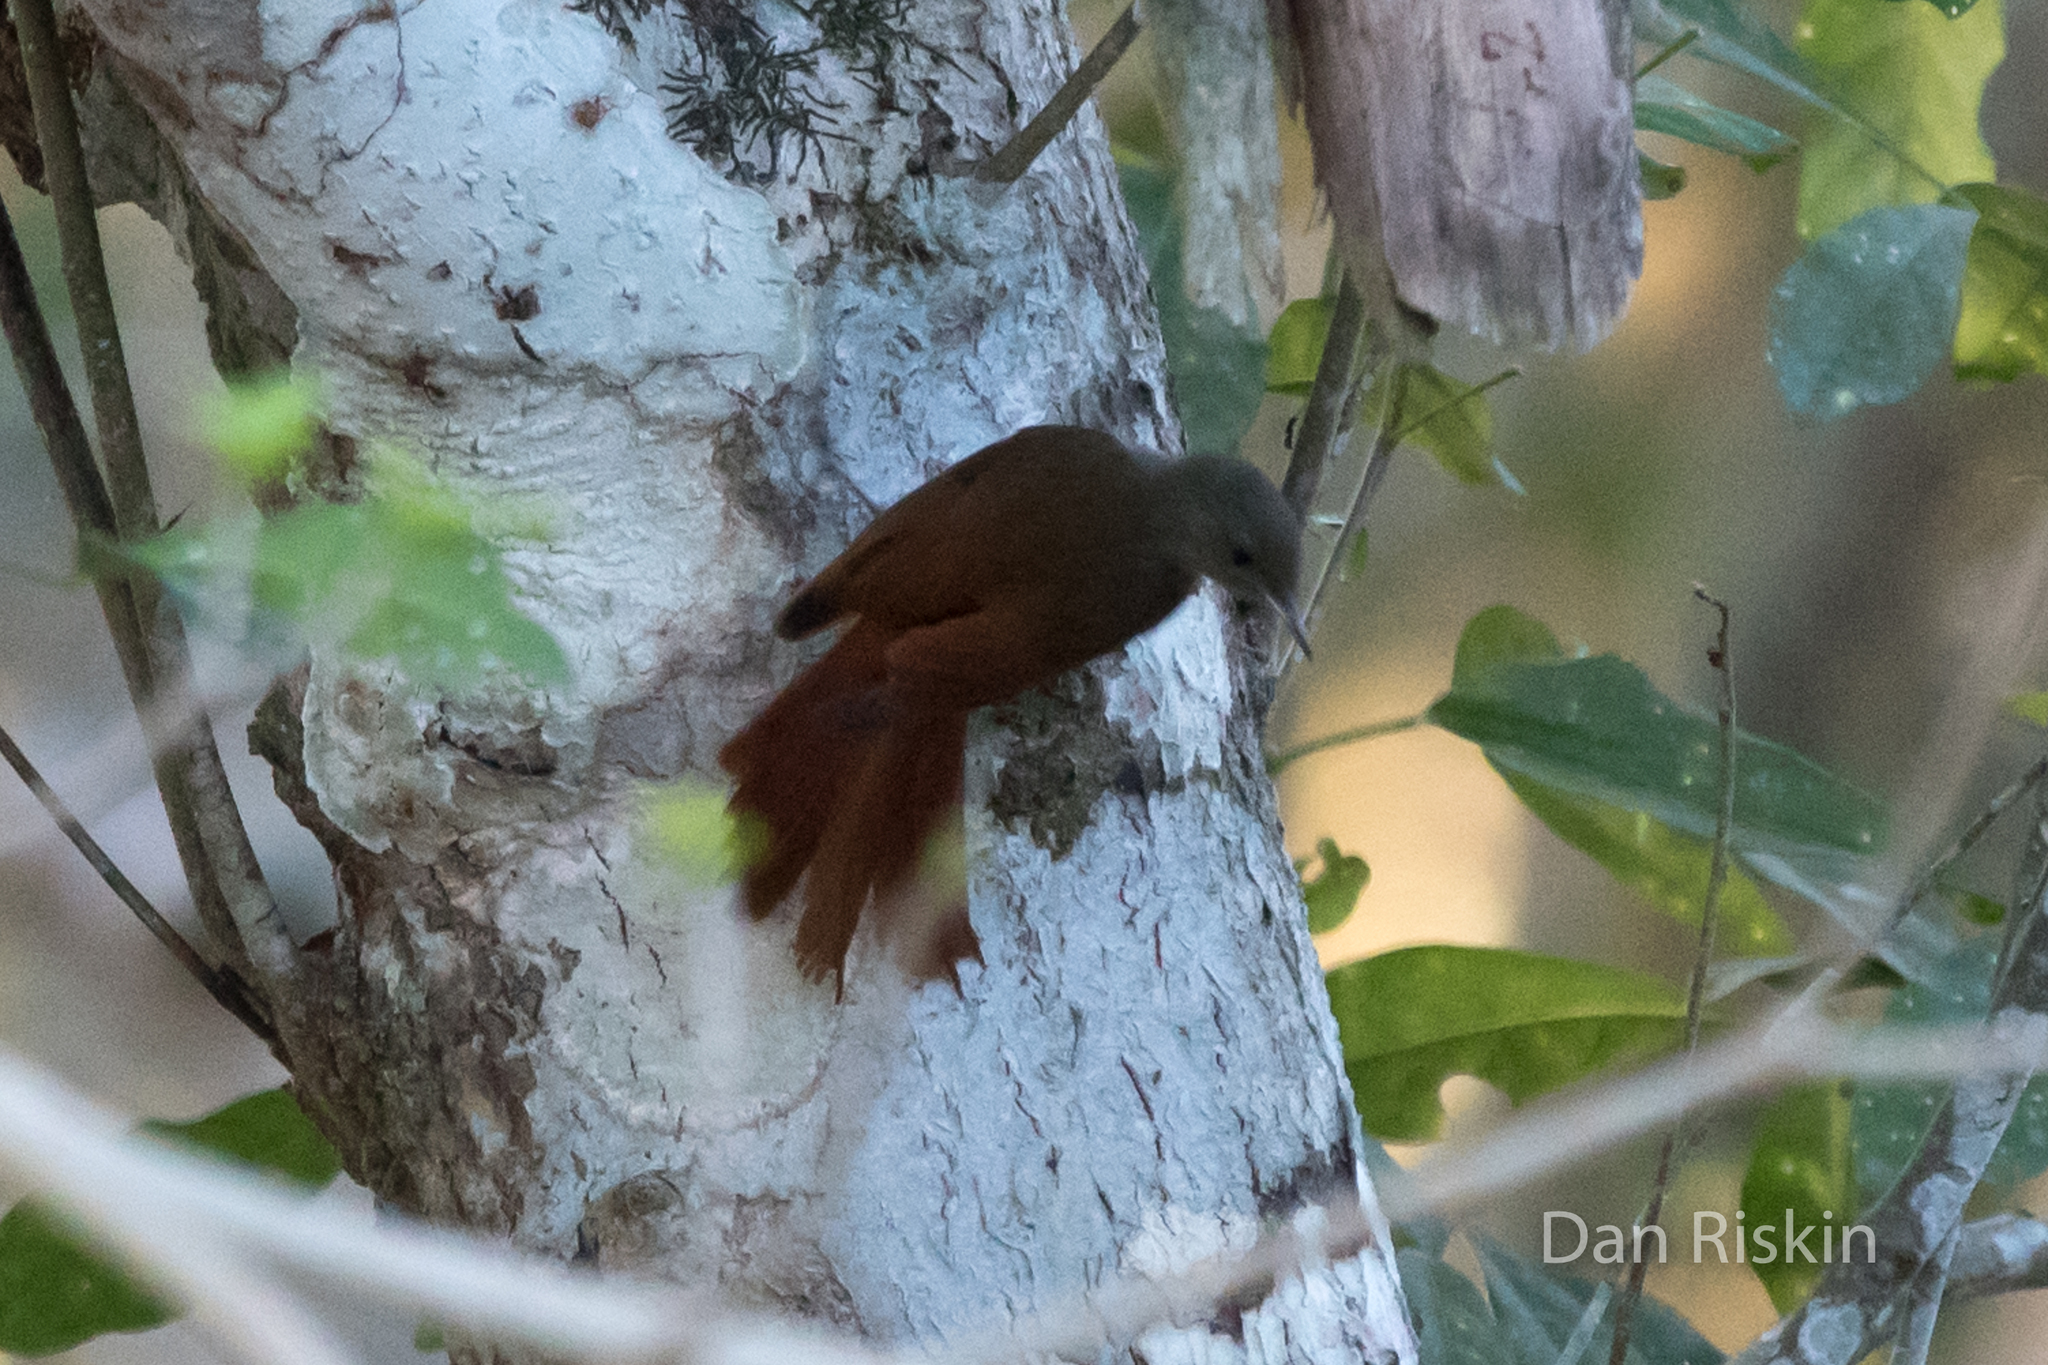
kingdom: Animalia
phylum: Chordata
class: Aves
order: Passeriformes
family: Furnariidae
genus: Sittasomus
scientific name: Sittasomus griseicapillus
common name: Olivaceous woodcreeper
